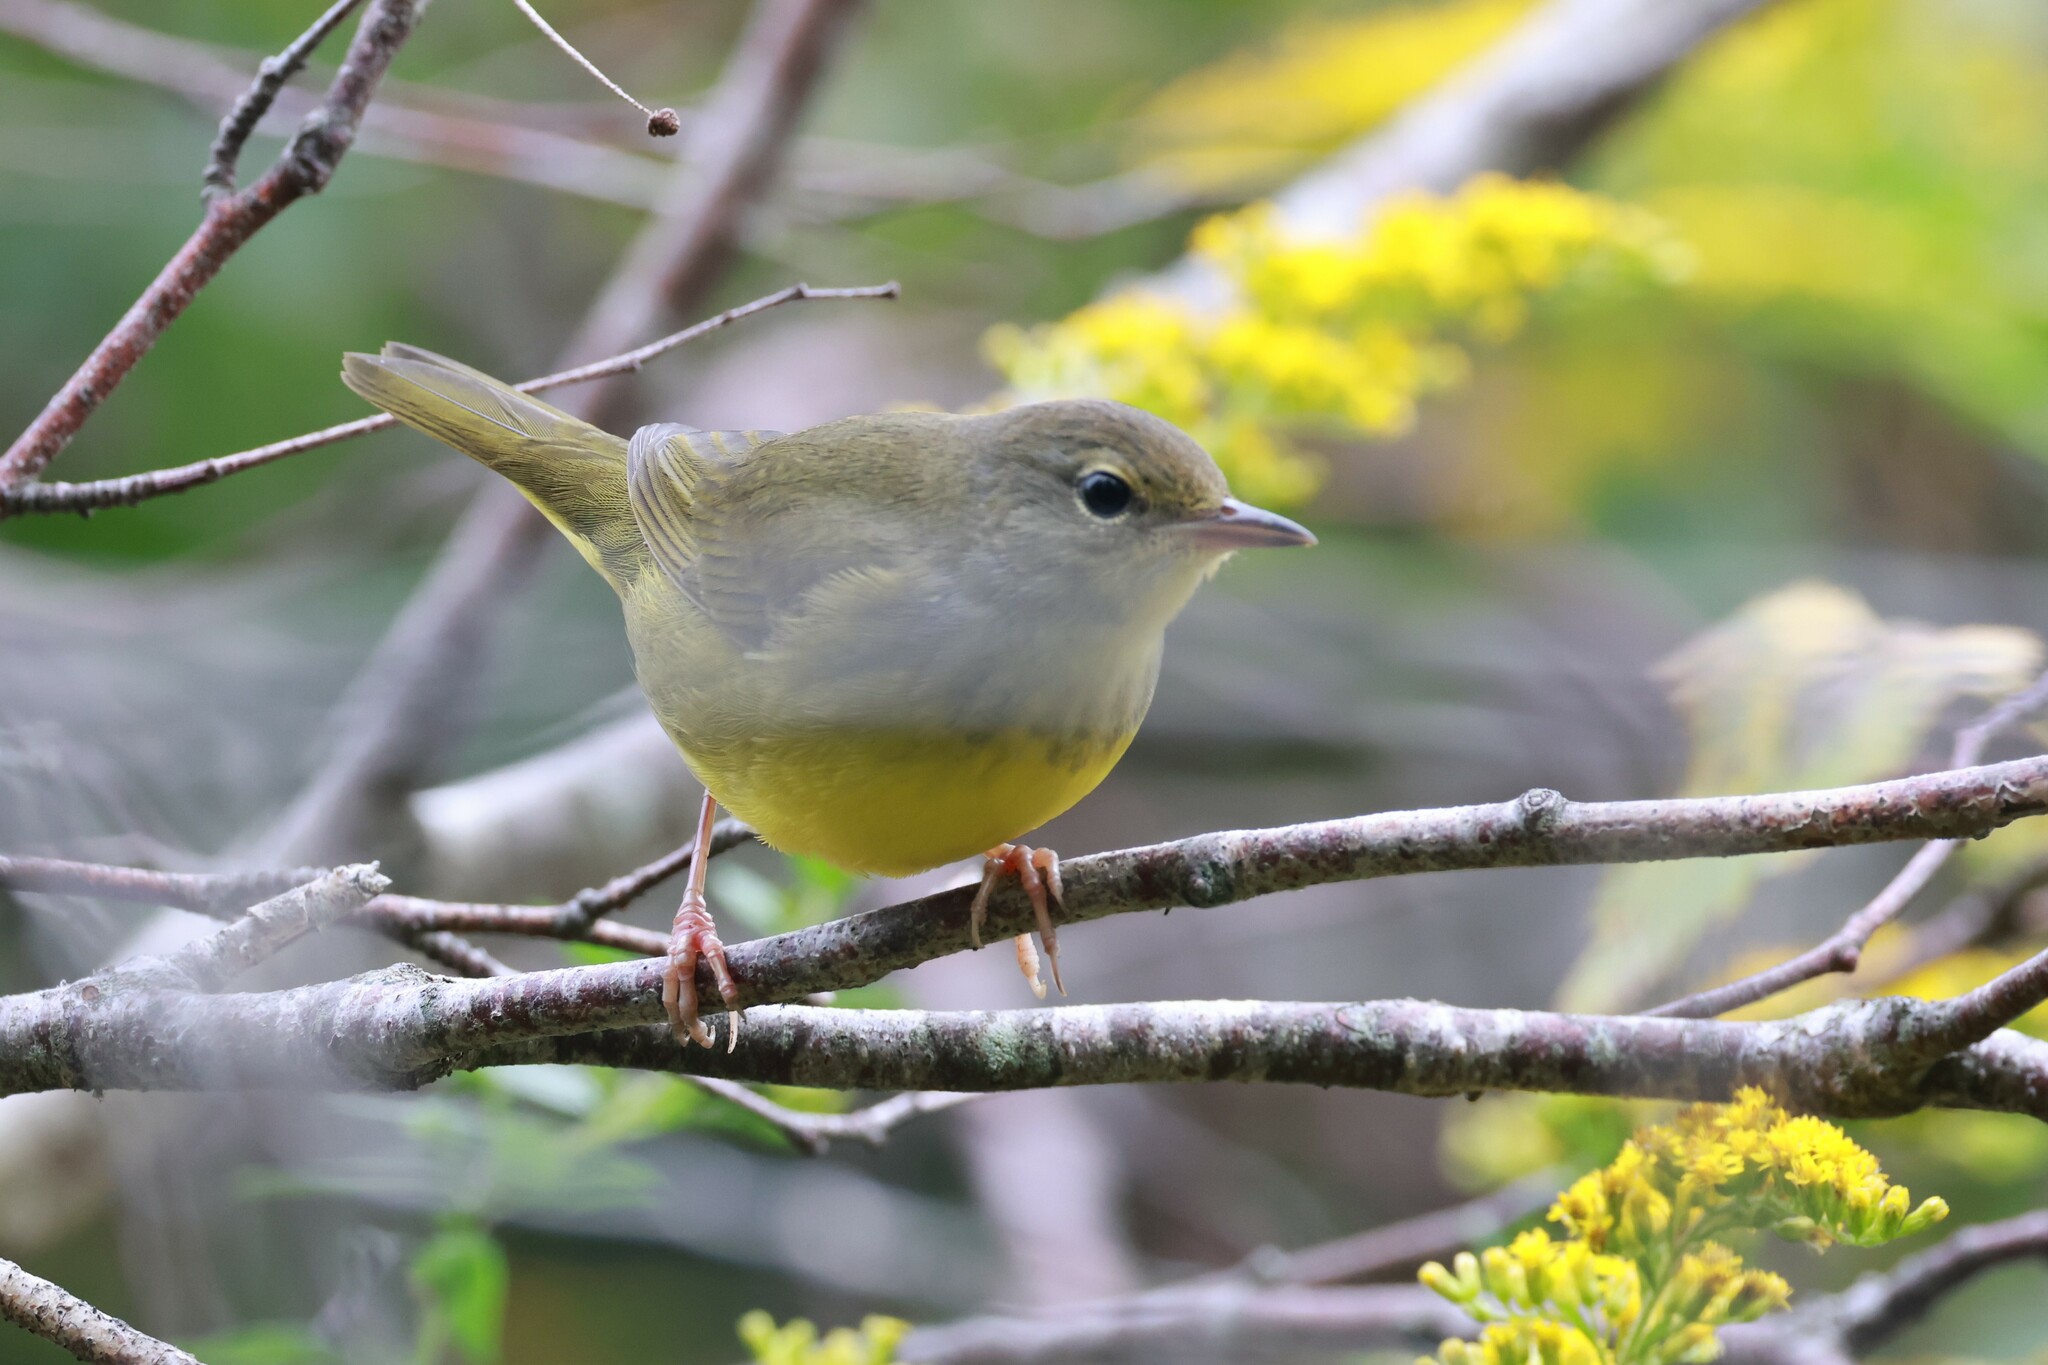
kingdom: Animalia
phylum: Chordata
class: Aves
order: Passeriformes
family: Parulidae
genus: Geothlypis
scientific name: Geothlypis philadelphia
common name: Mourning warbler
